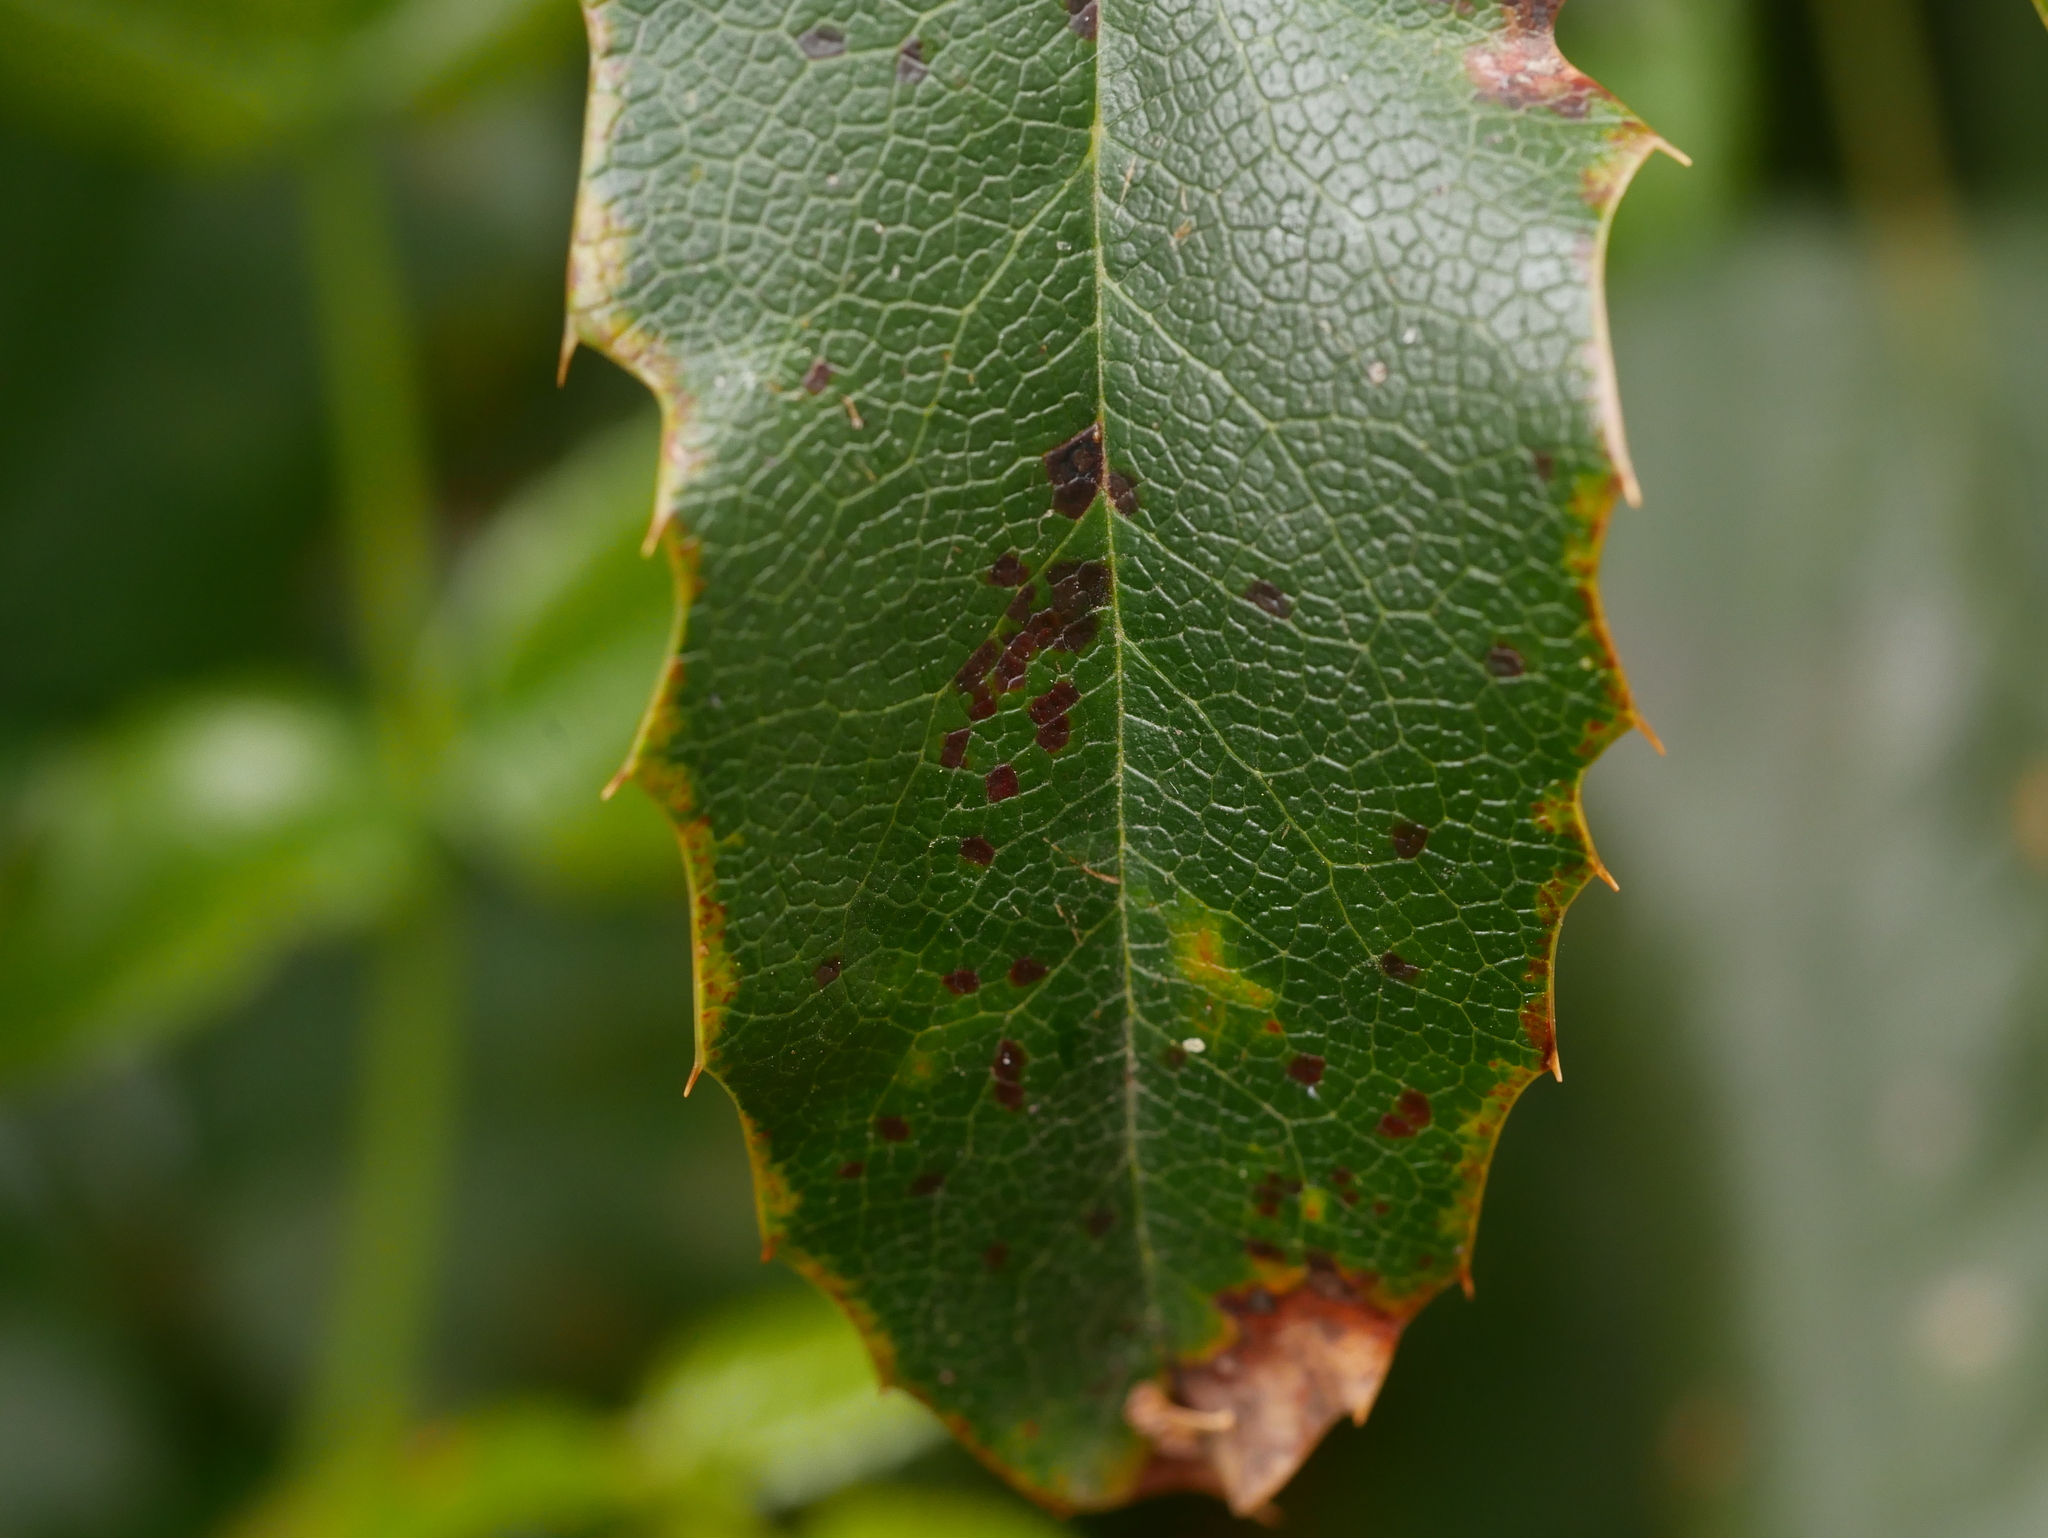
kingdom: Fungi
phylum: Basidiomycota
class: Pucciniomycetes
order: Pucciniales
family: Pucciniaceae
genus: Cumminsiella
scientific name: Cumminsiella mirabilissima
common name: Mahonia rust
